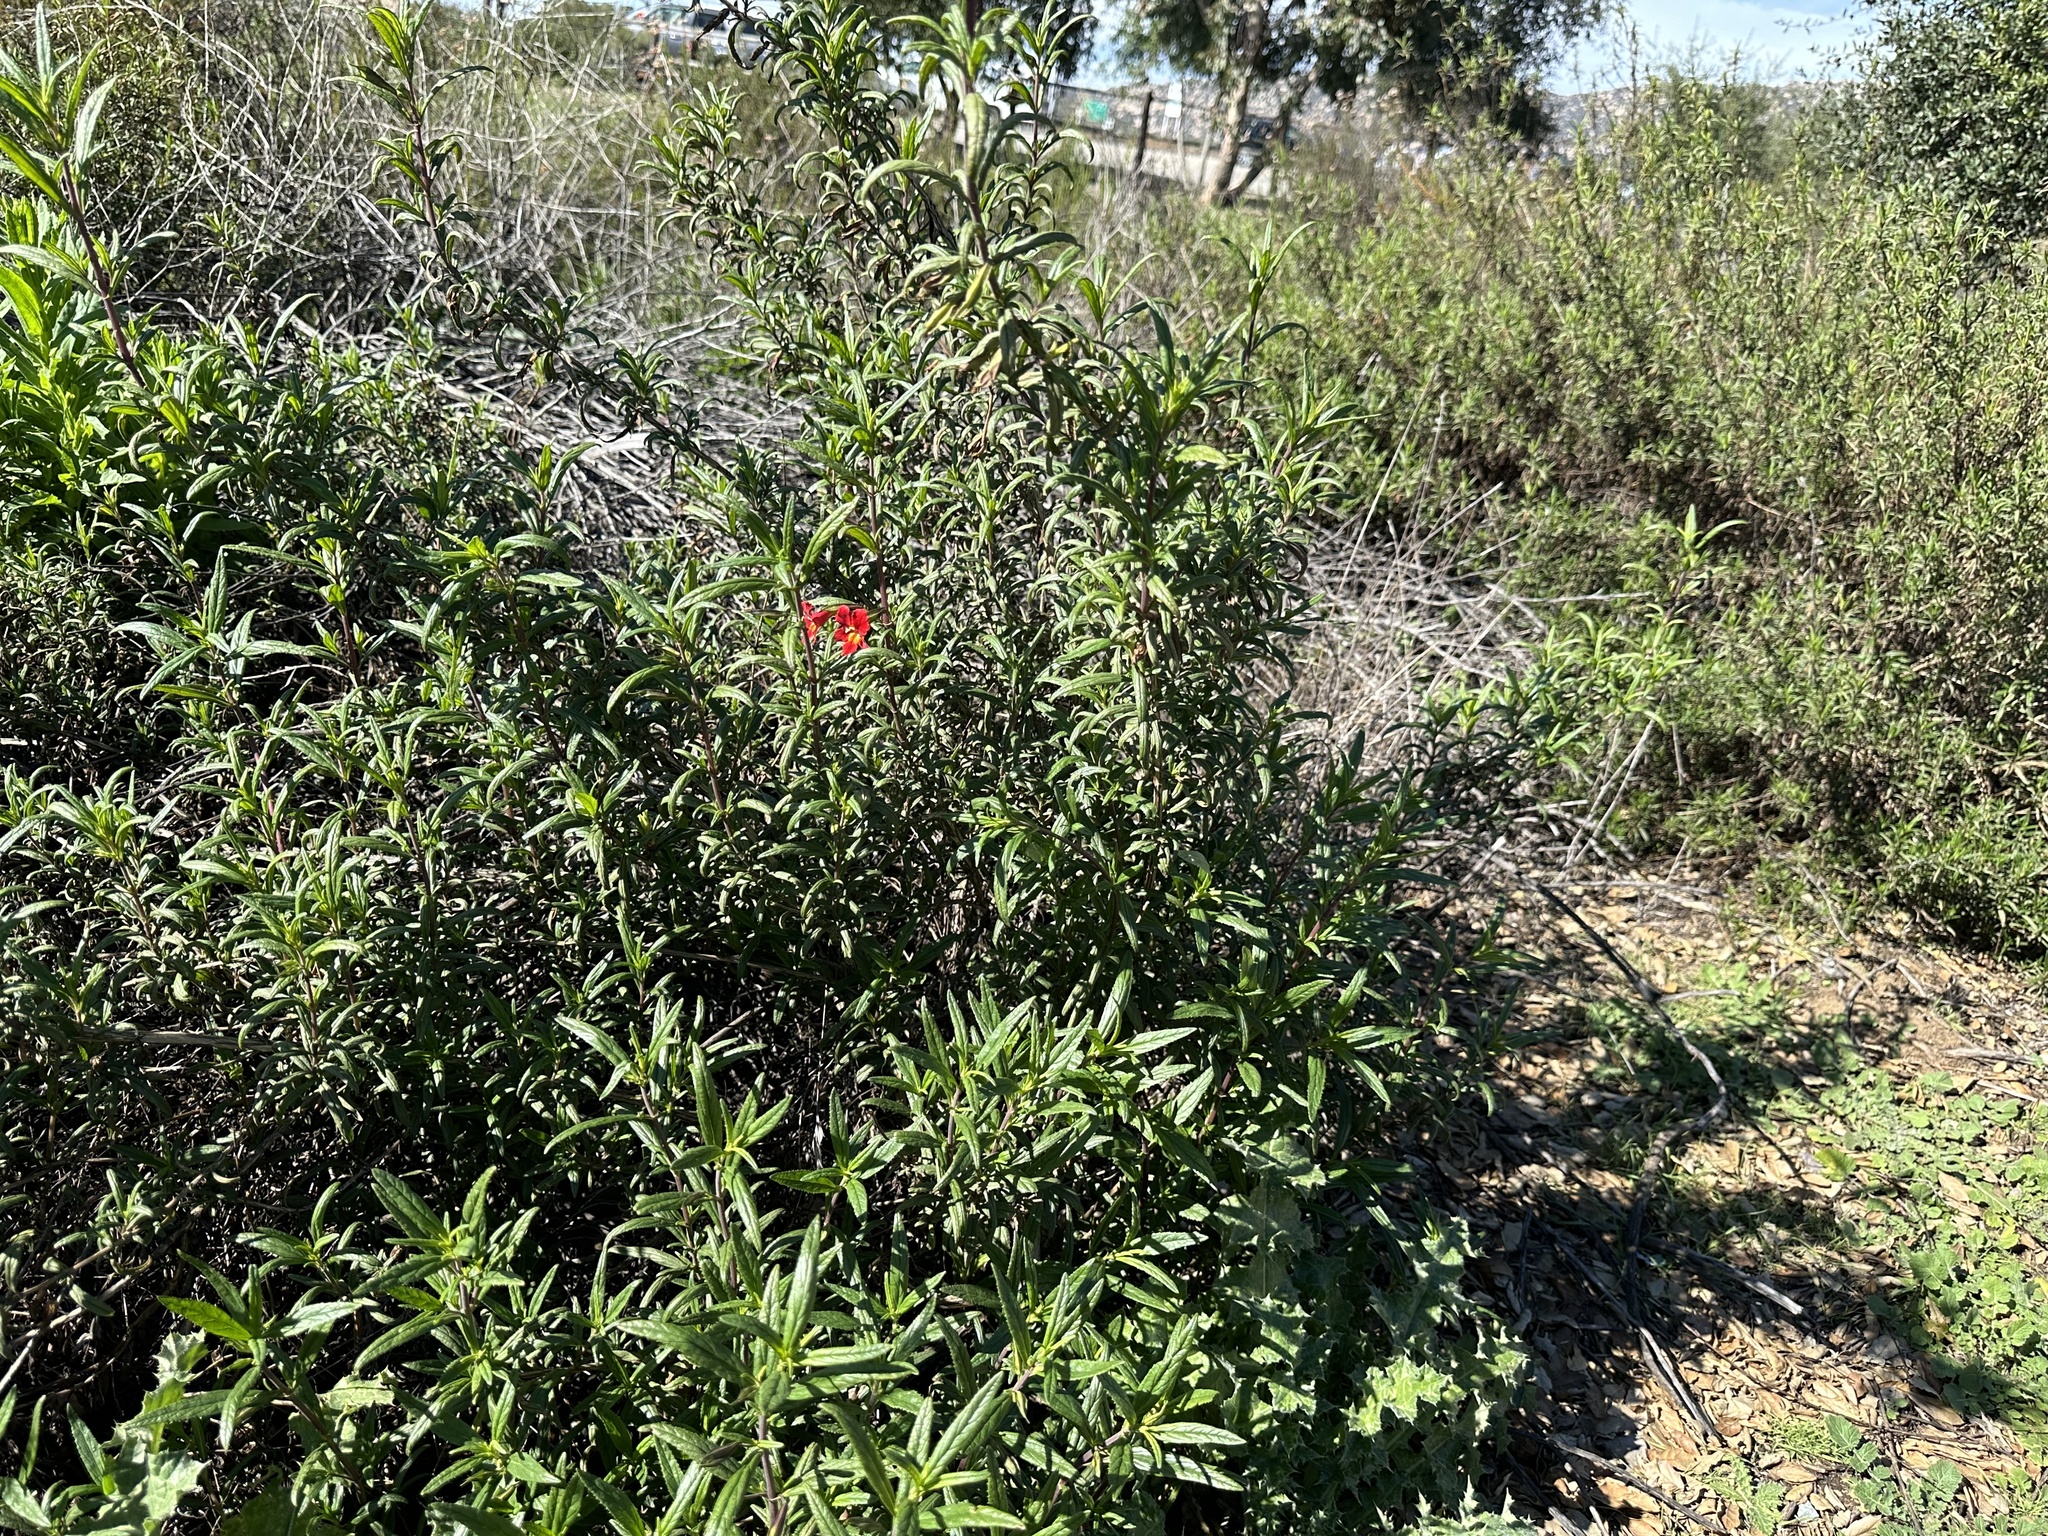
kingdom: Plantae
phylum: Tracheophyta
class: Magnoliopsida
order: Lamiales
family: Phrymaceae
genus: Diplacus
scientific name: Diplacus puniceus
